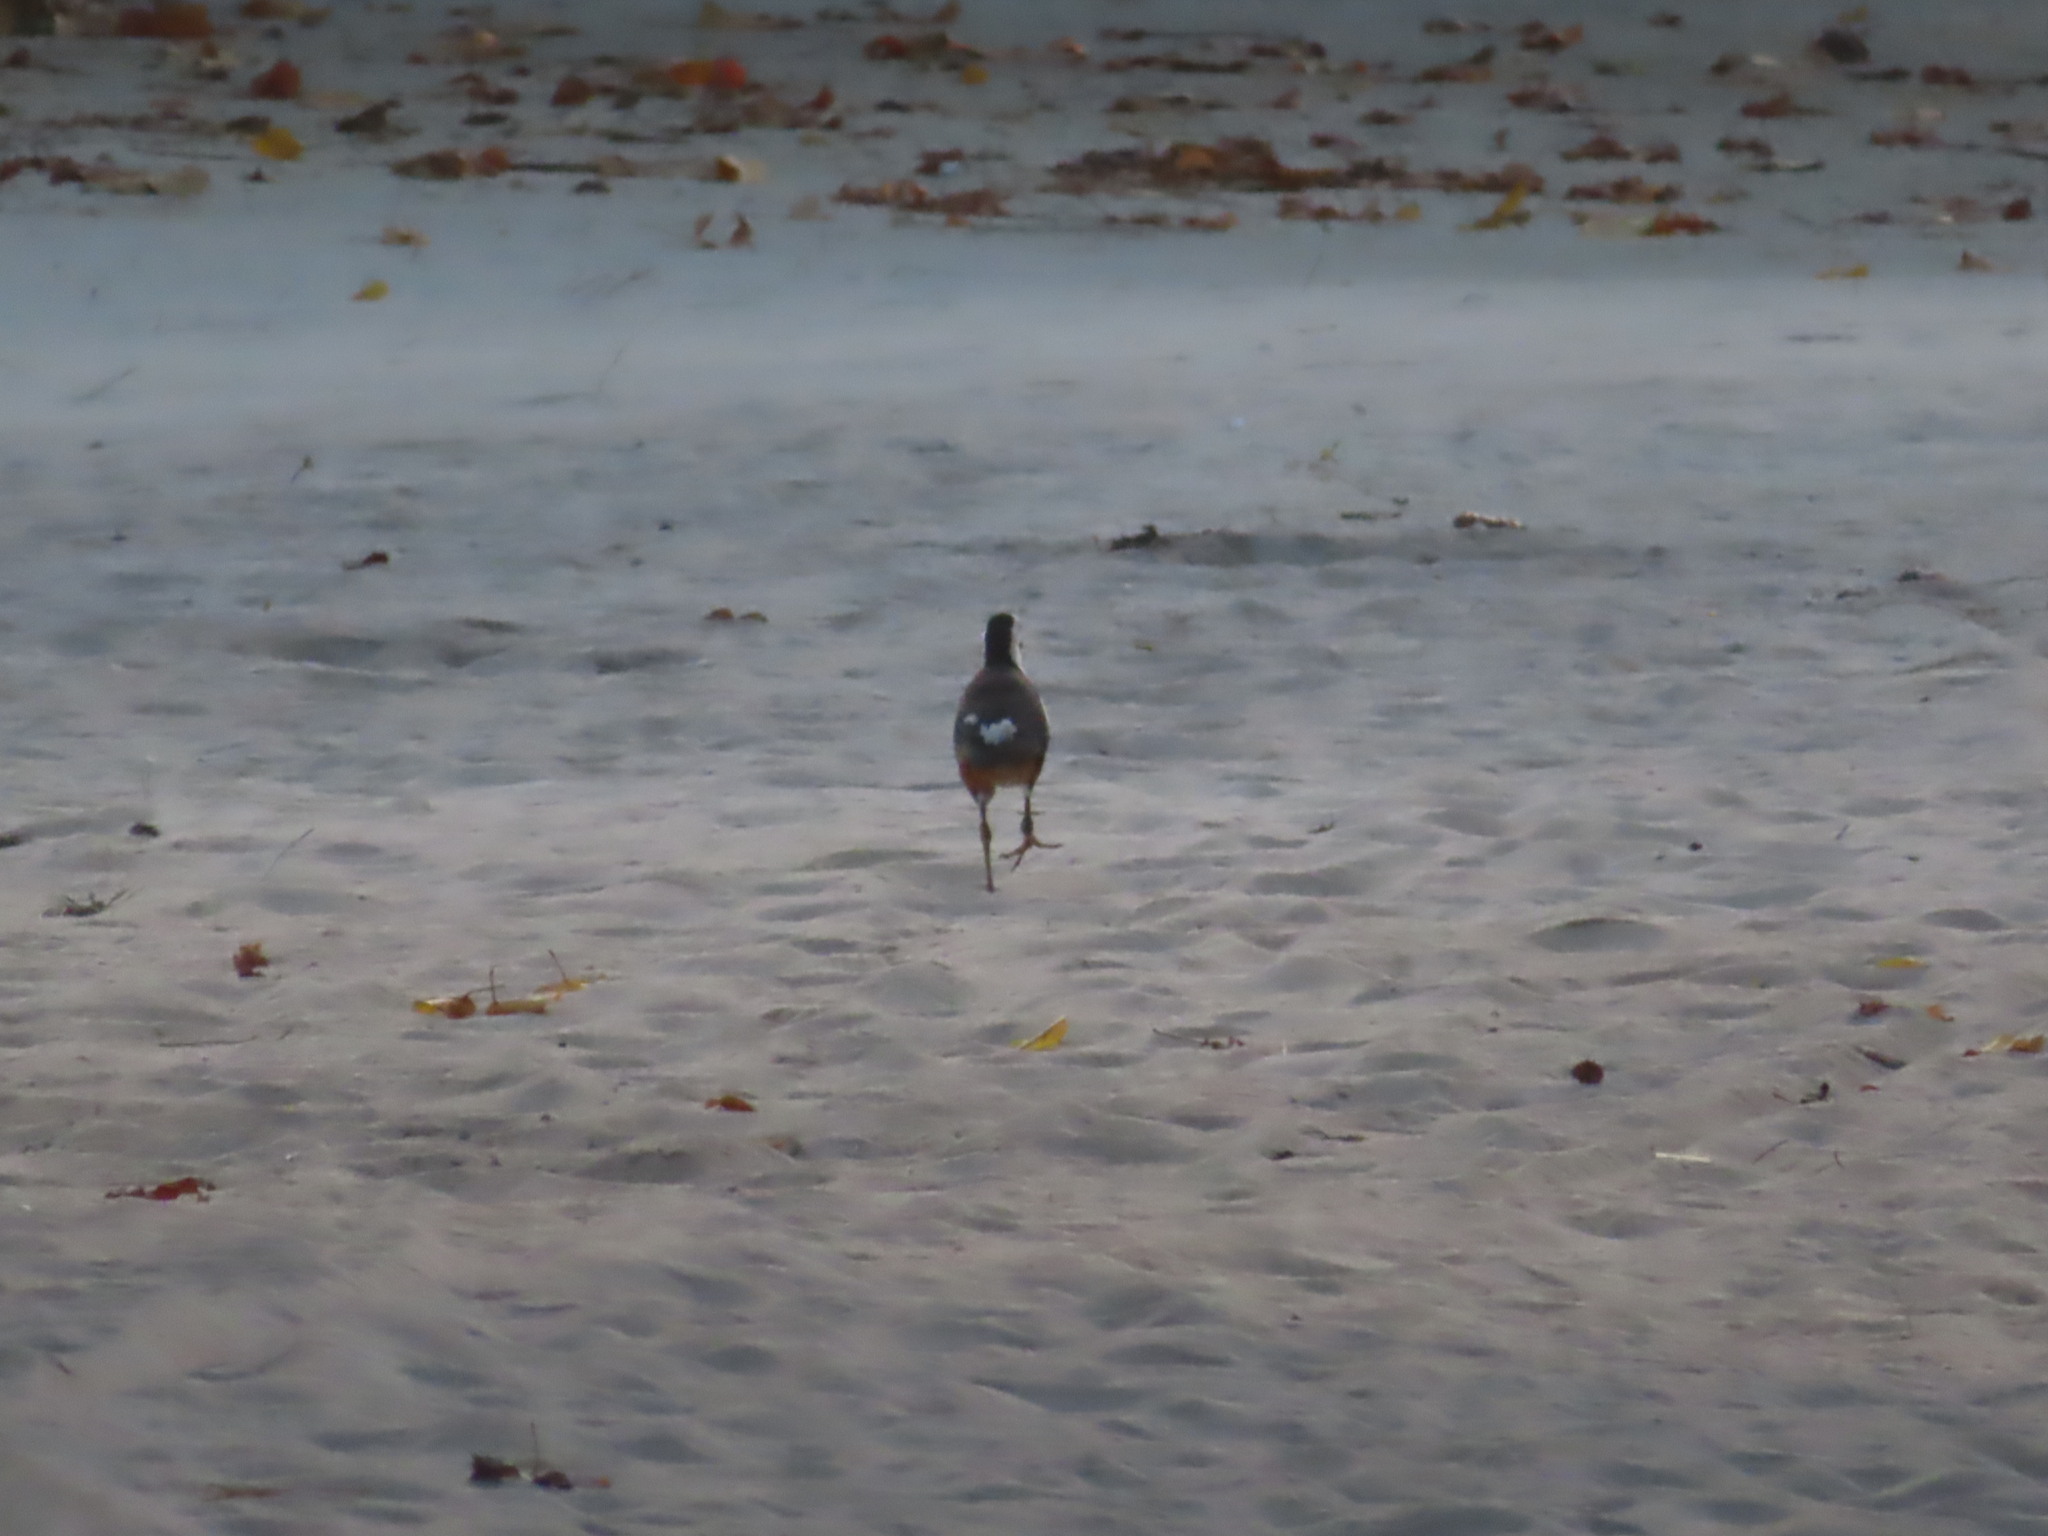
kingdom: Animalia
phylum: Chordata
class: Aves
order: Gruiformes
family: Rallidae
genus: Amaurornis
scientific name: Amaurornis phoenicurus
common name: White-breasted waterhen
